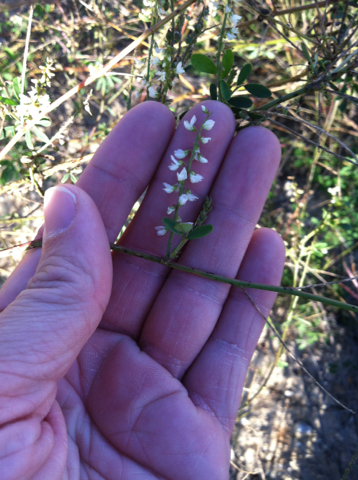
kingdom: Plantae
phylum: Tracheophyta
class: Magnoliopsida
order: Fabales
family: Fabaceae
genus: Melilotus
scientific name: Melilotus albus
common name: White melilot
